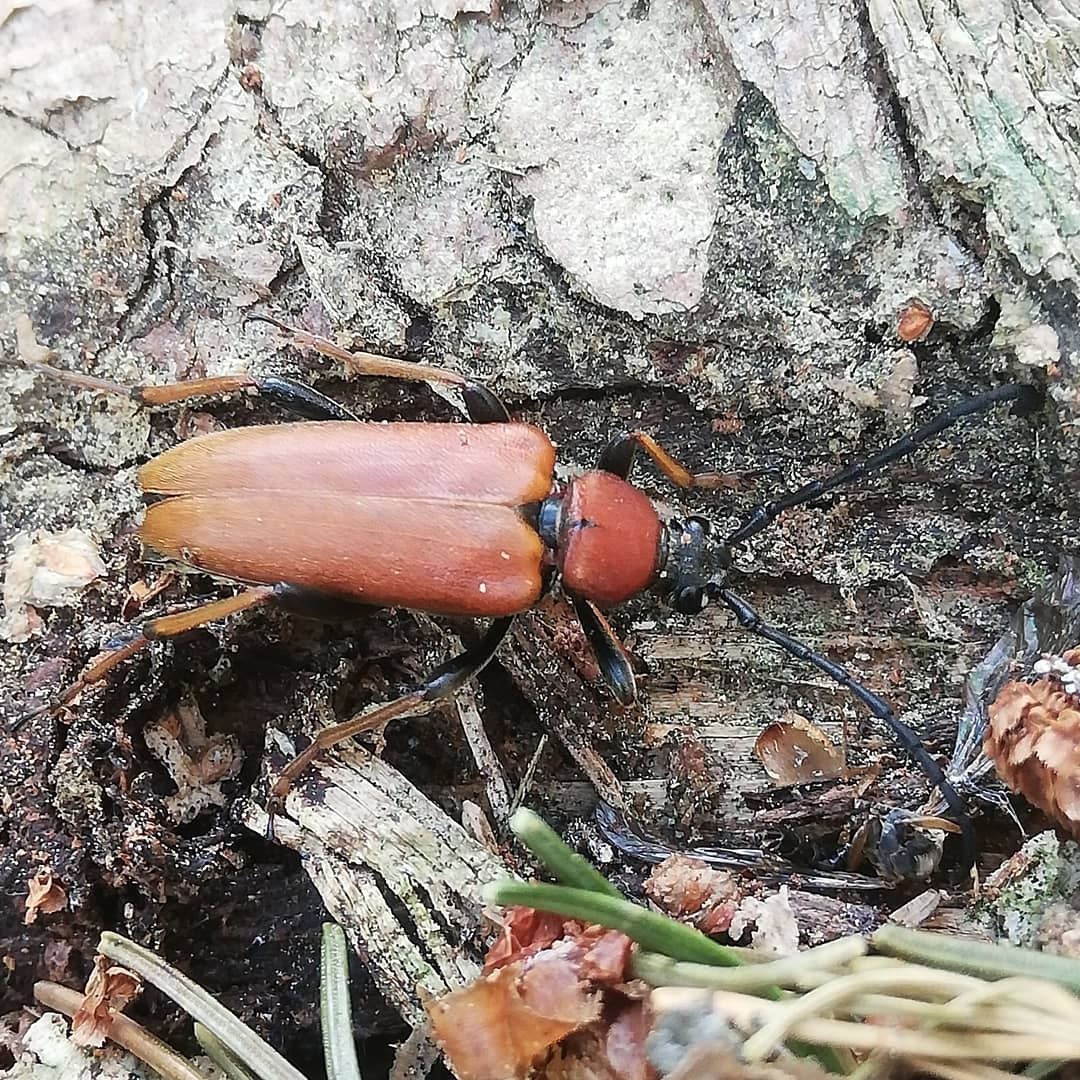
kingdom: Animalia
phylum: Arthropoda
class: Insecta
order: Coleoptera
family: Cerambycidae
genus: Stictoleptura
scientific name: Stictoleptura rubra
